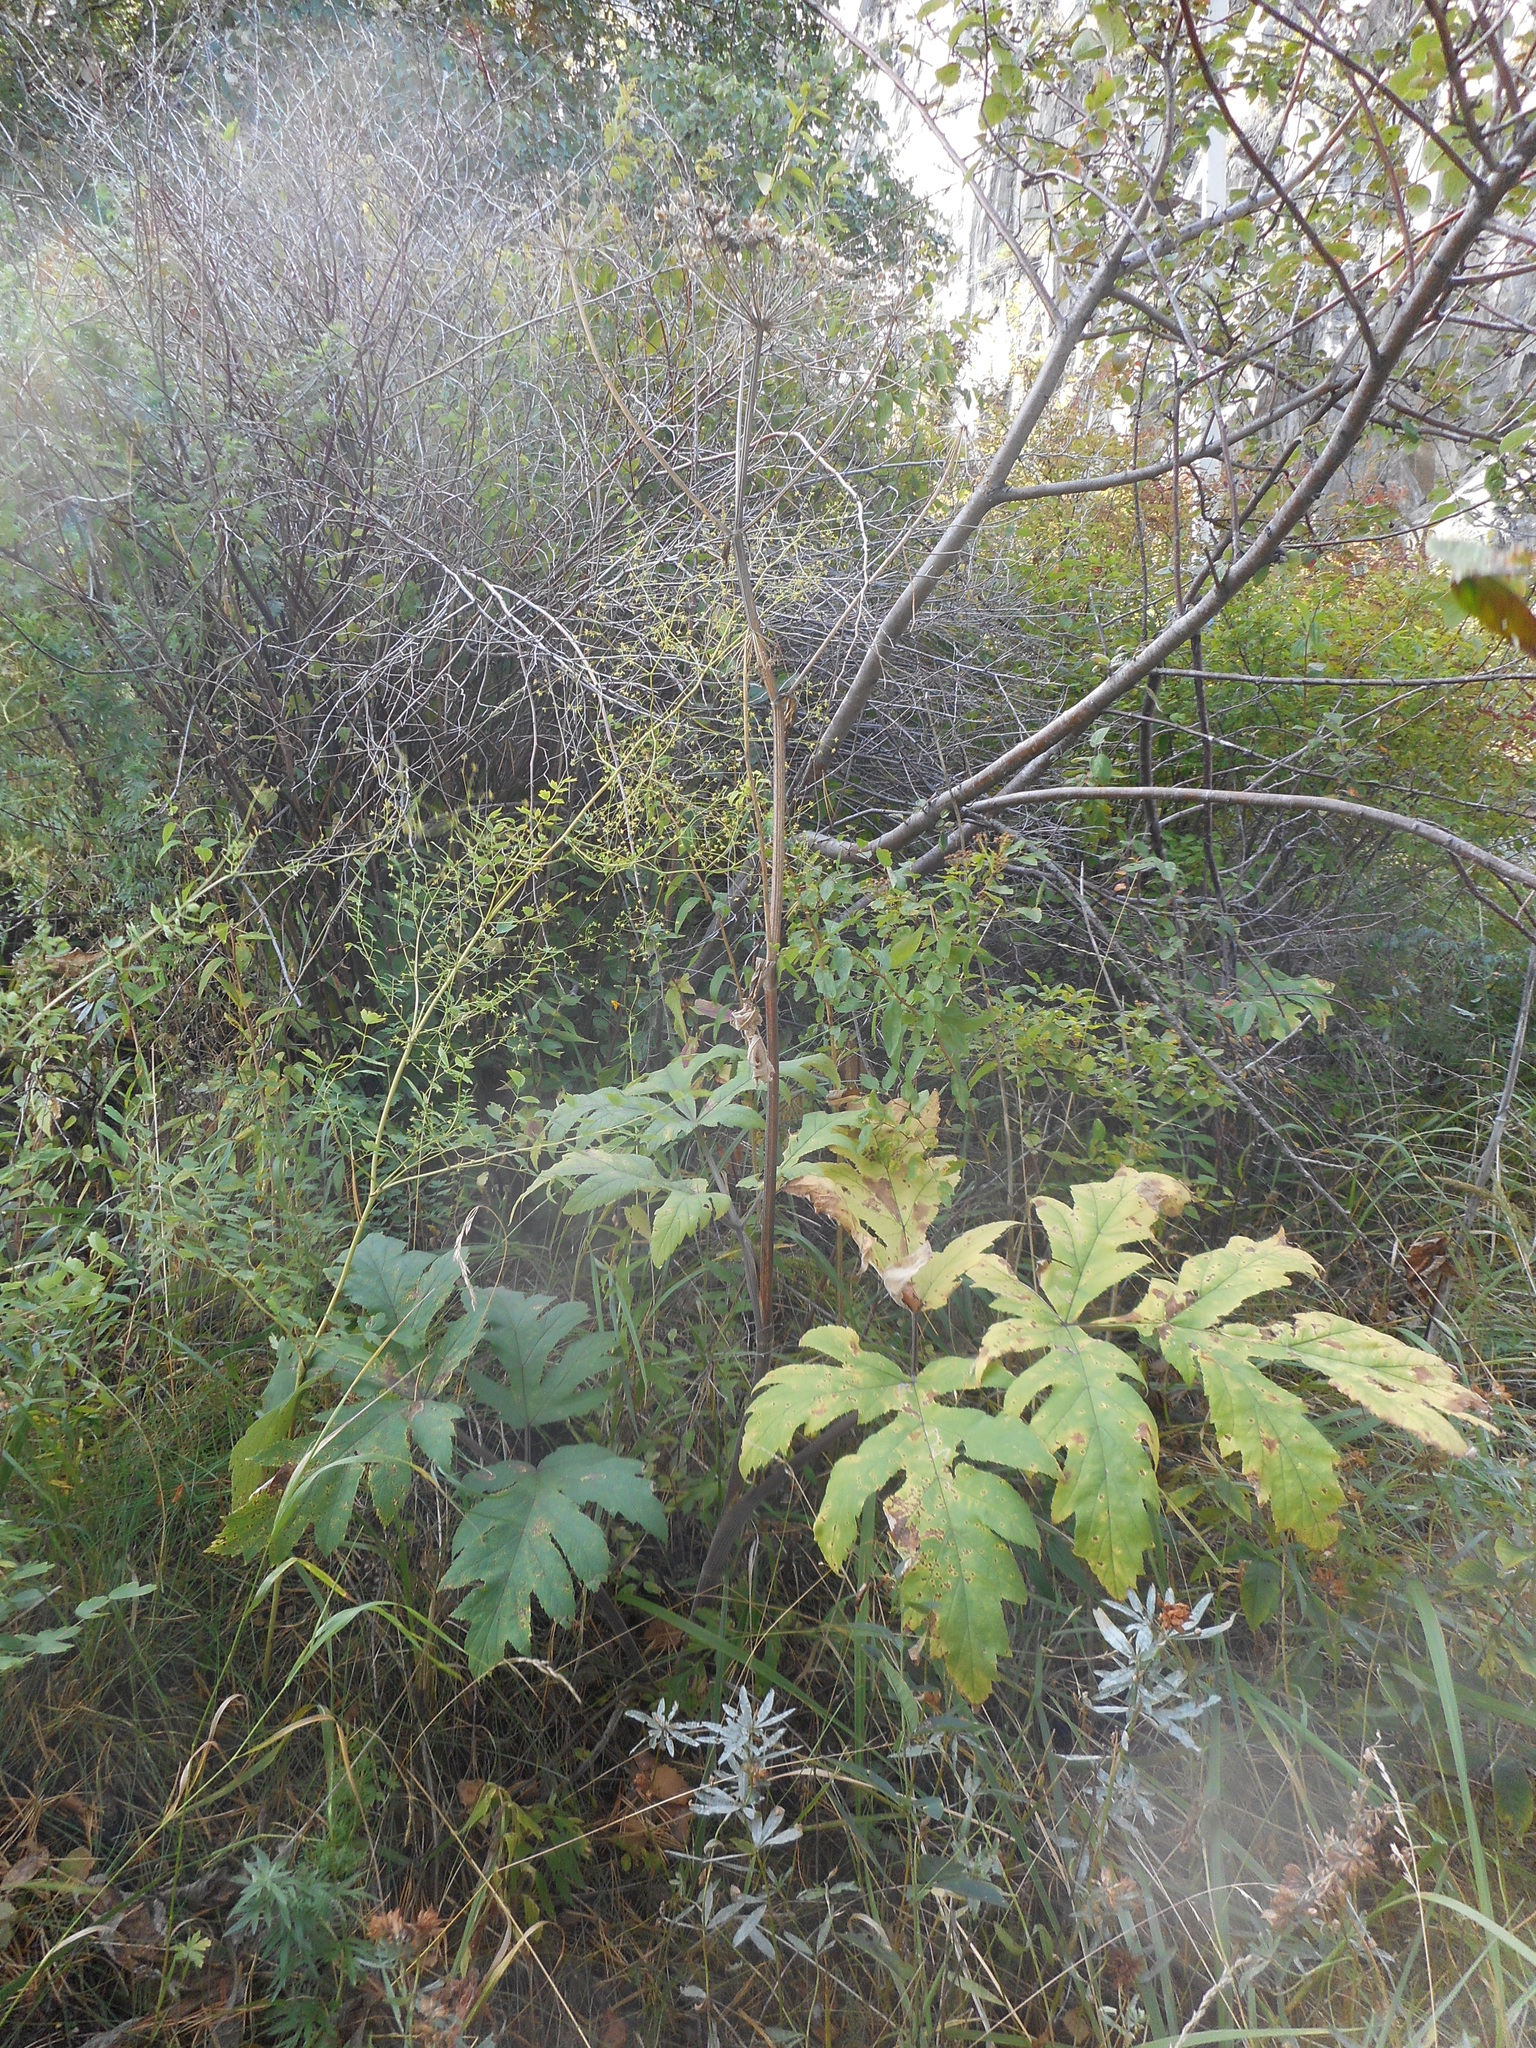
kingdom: Plantae
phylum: Tracheophyta
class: Magnoliopsida
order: Apiales
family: Apiaceae
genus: Heracleum
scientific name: Heracleum dissectum
